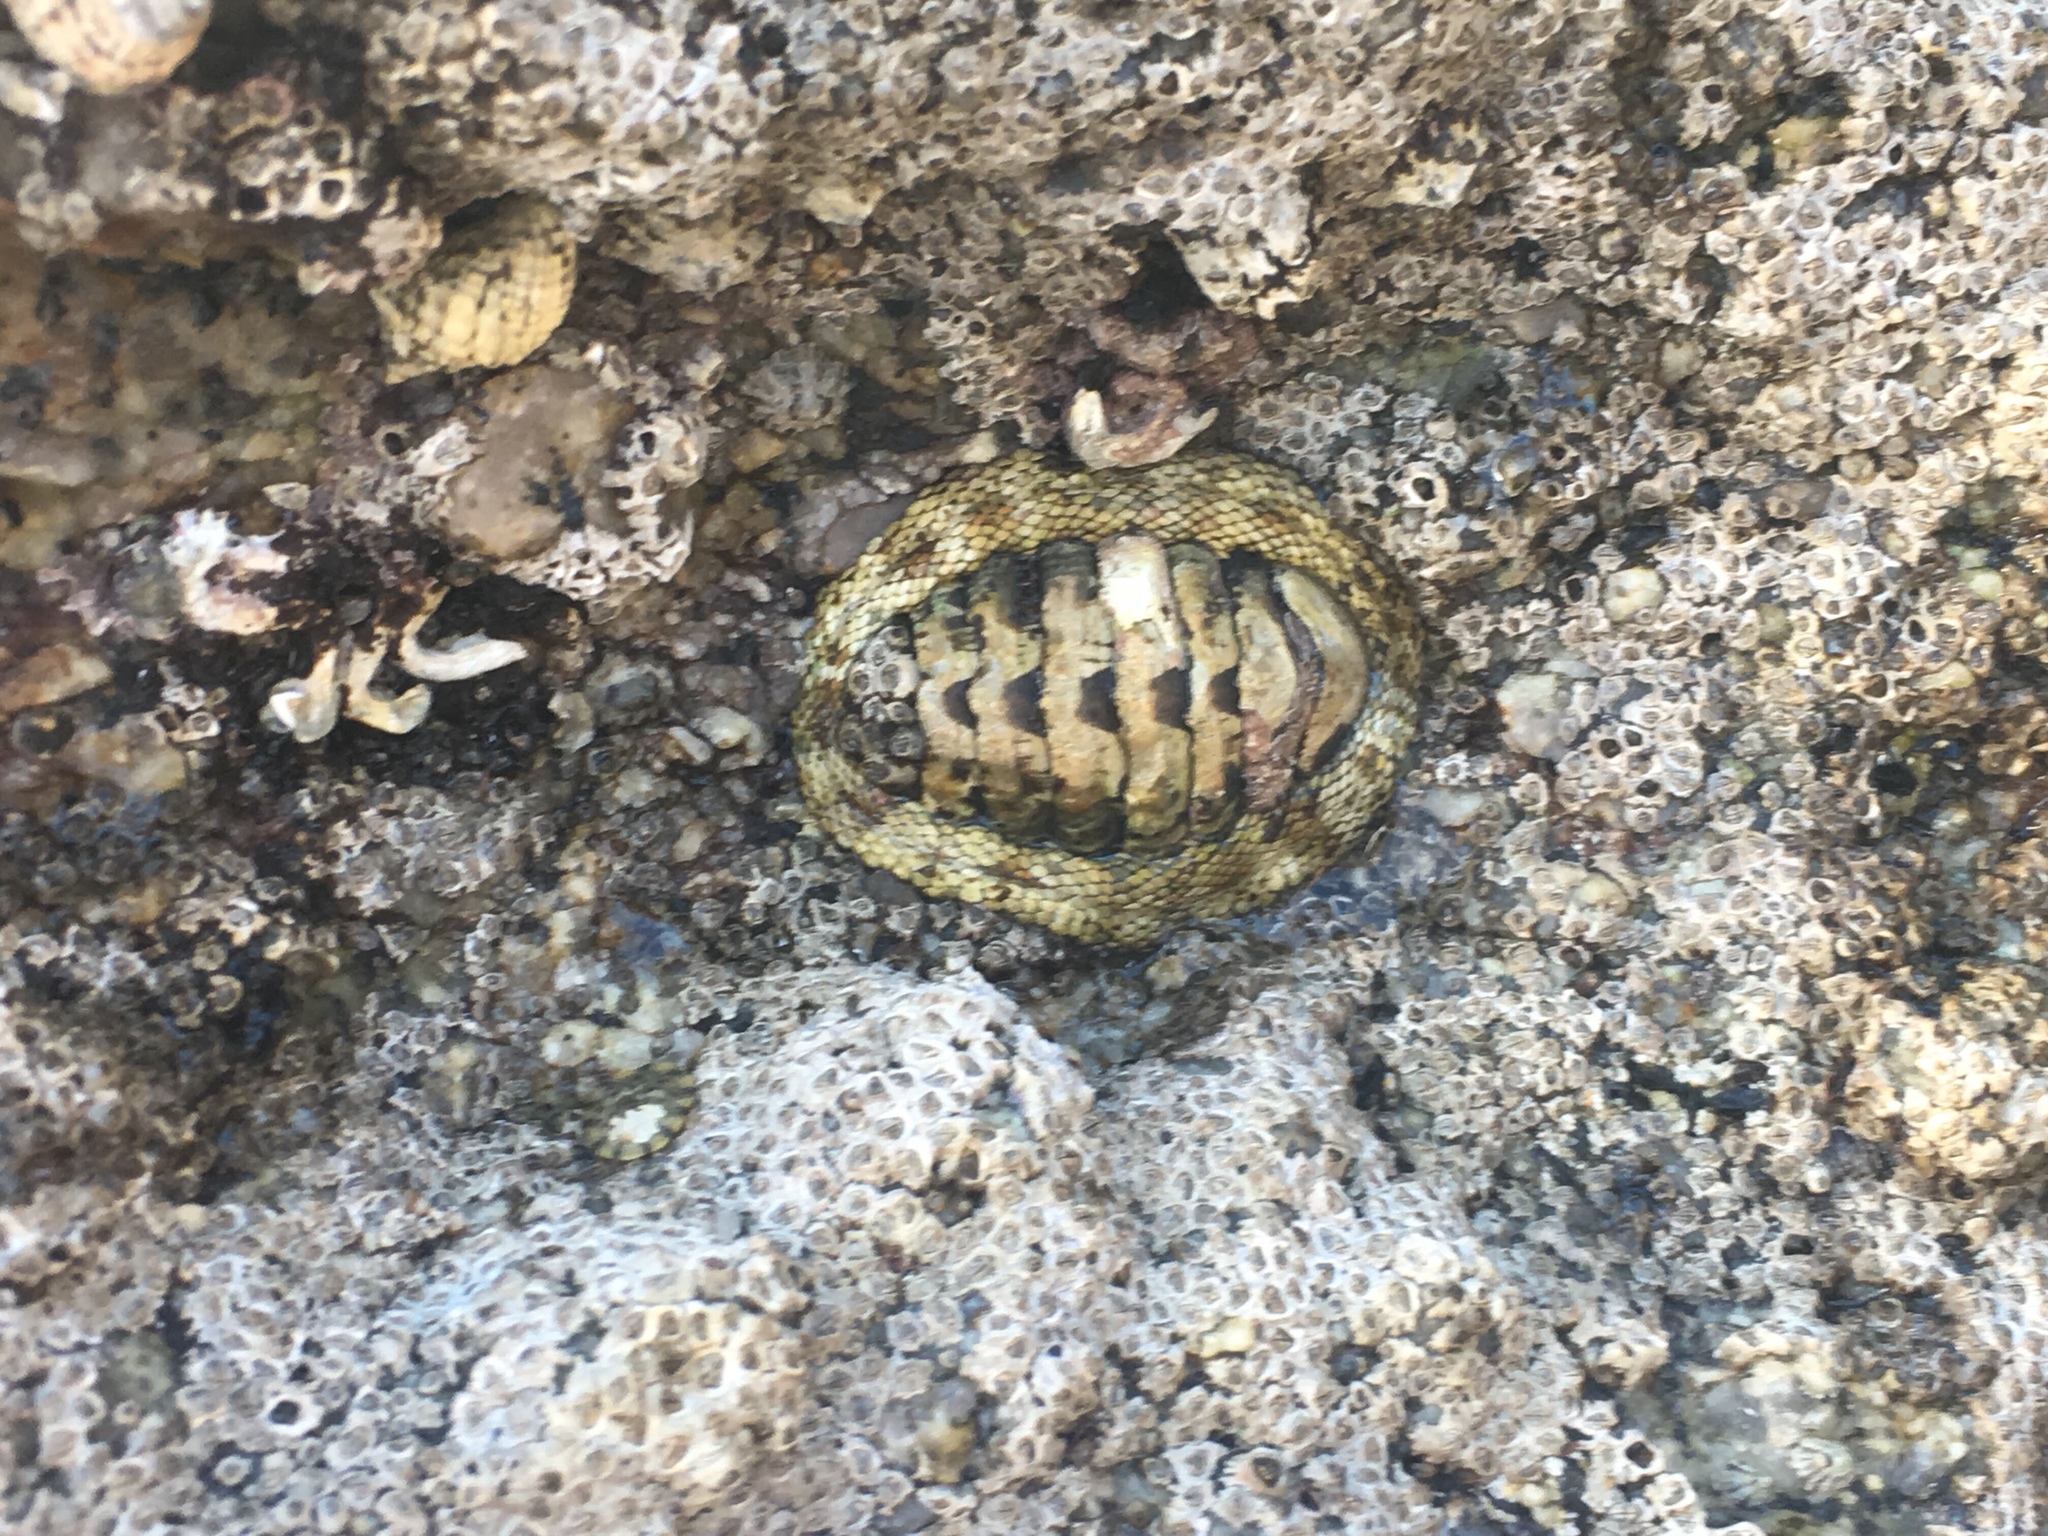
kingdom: Animalia
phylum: Mollusca
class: Polyplacophora
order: Chitonida
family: Chitonidae
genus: Sypharochiton
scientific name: Sypharochiton pelliserpentis
